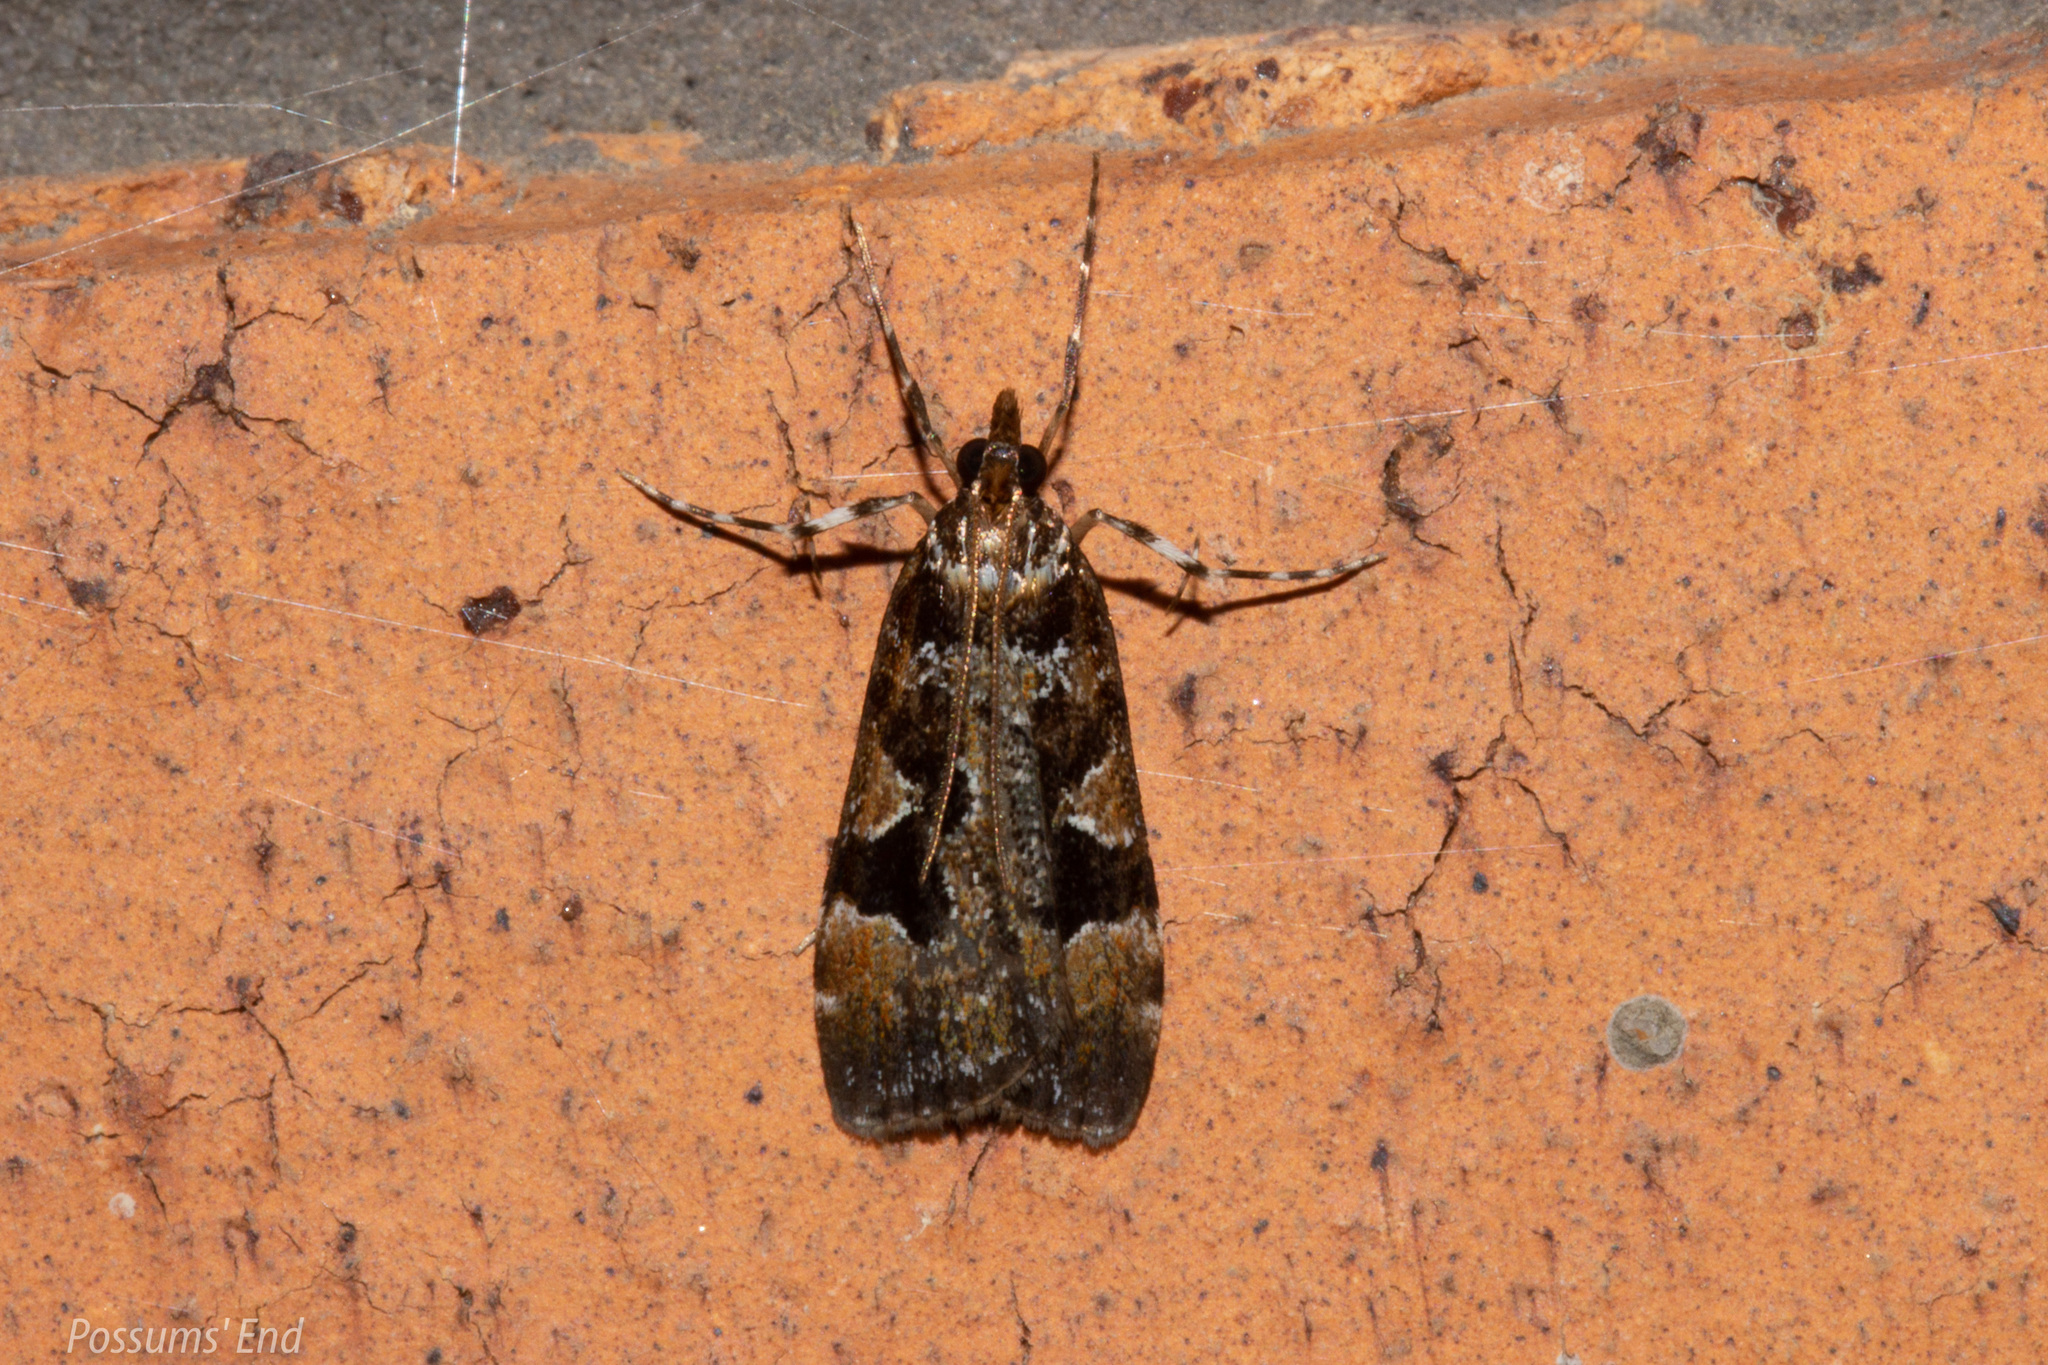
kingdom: Animalia
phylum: Arthropoda
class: Insecta
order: Lepidoptera
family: Crambidae
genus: Scoparia
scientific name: Scoparia ustimacula
